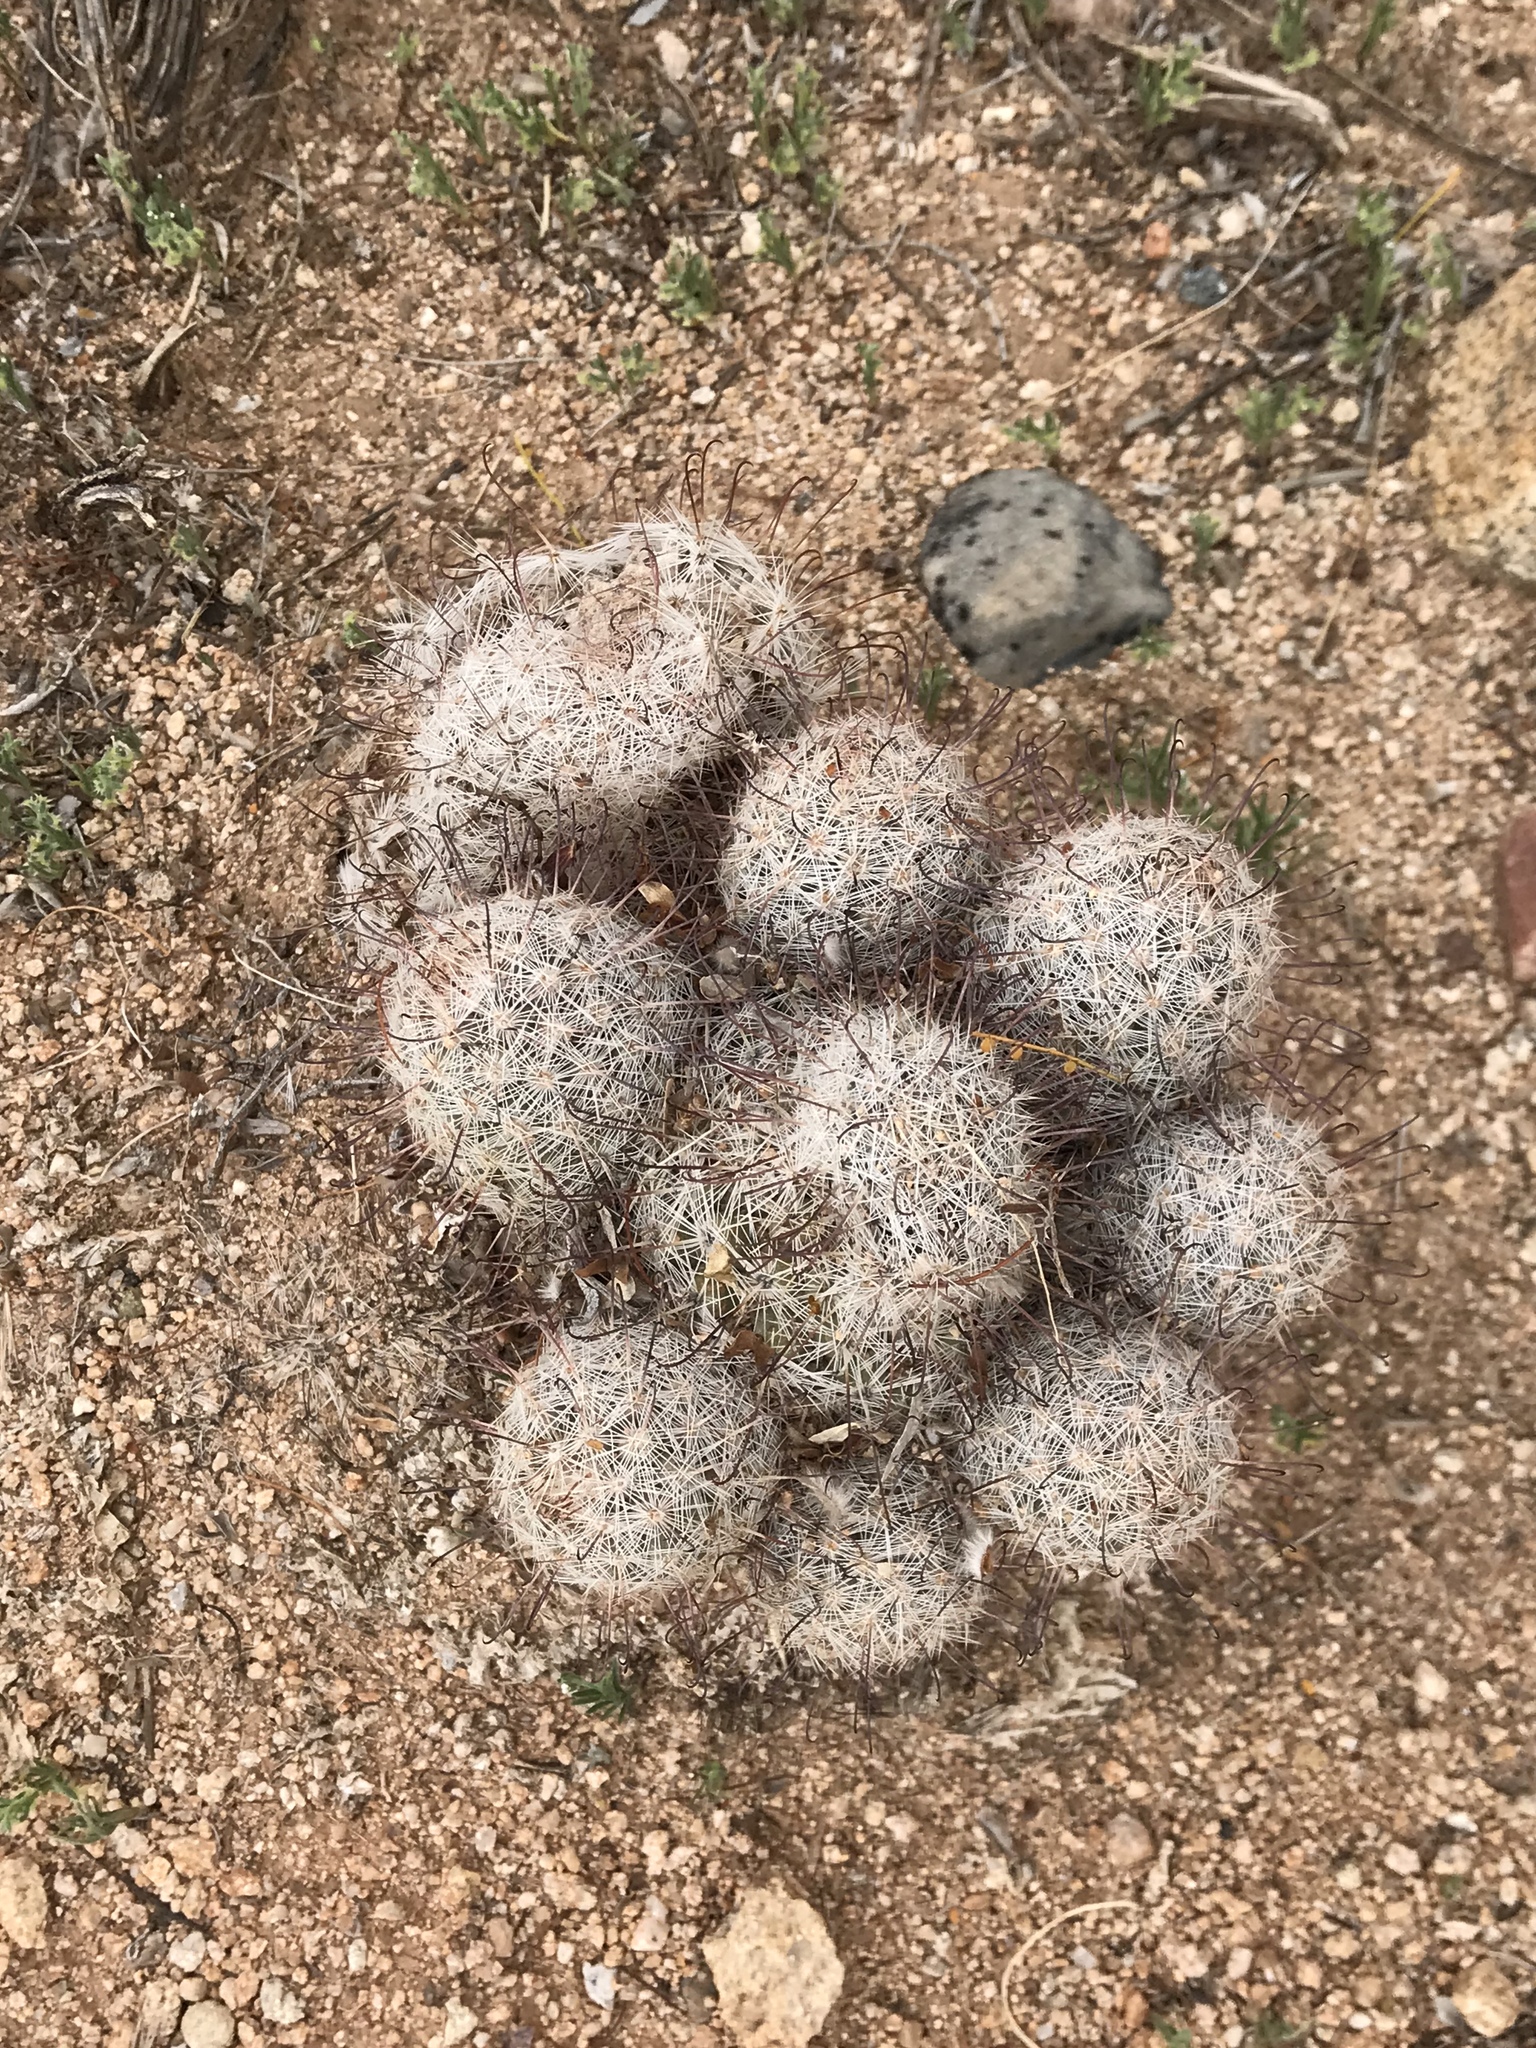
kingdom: Plantae
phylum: Tracheophyta
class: Magnoliopsida
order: Caryophyllales
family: Cactaceae
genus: Cochemiea
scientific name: Cochemiea grahamii
